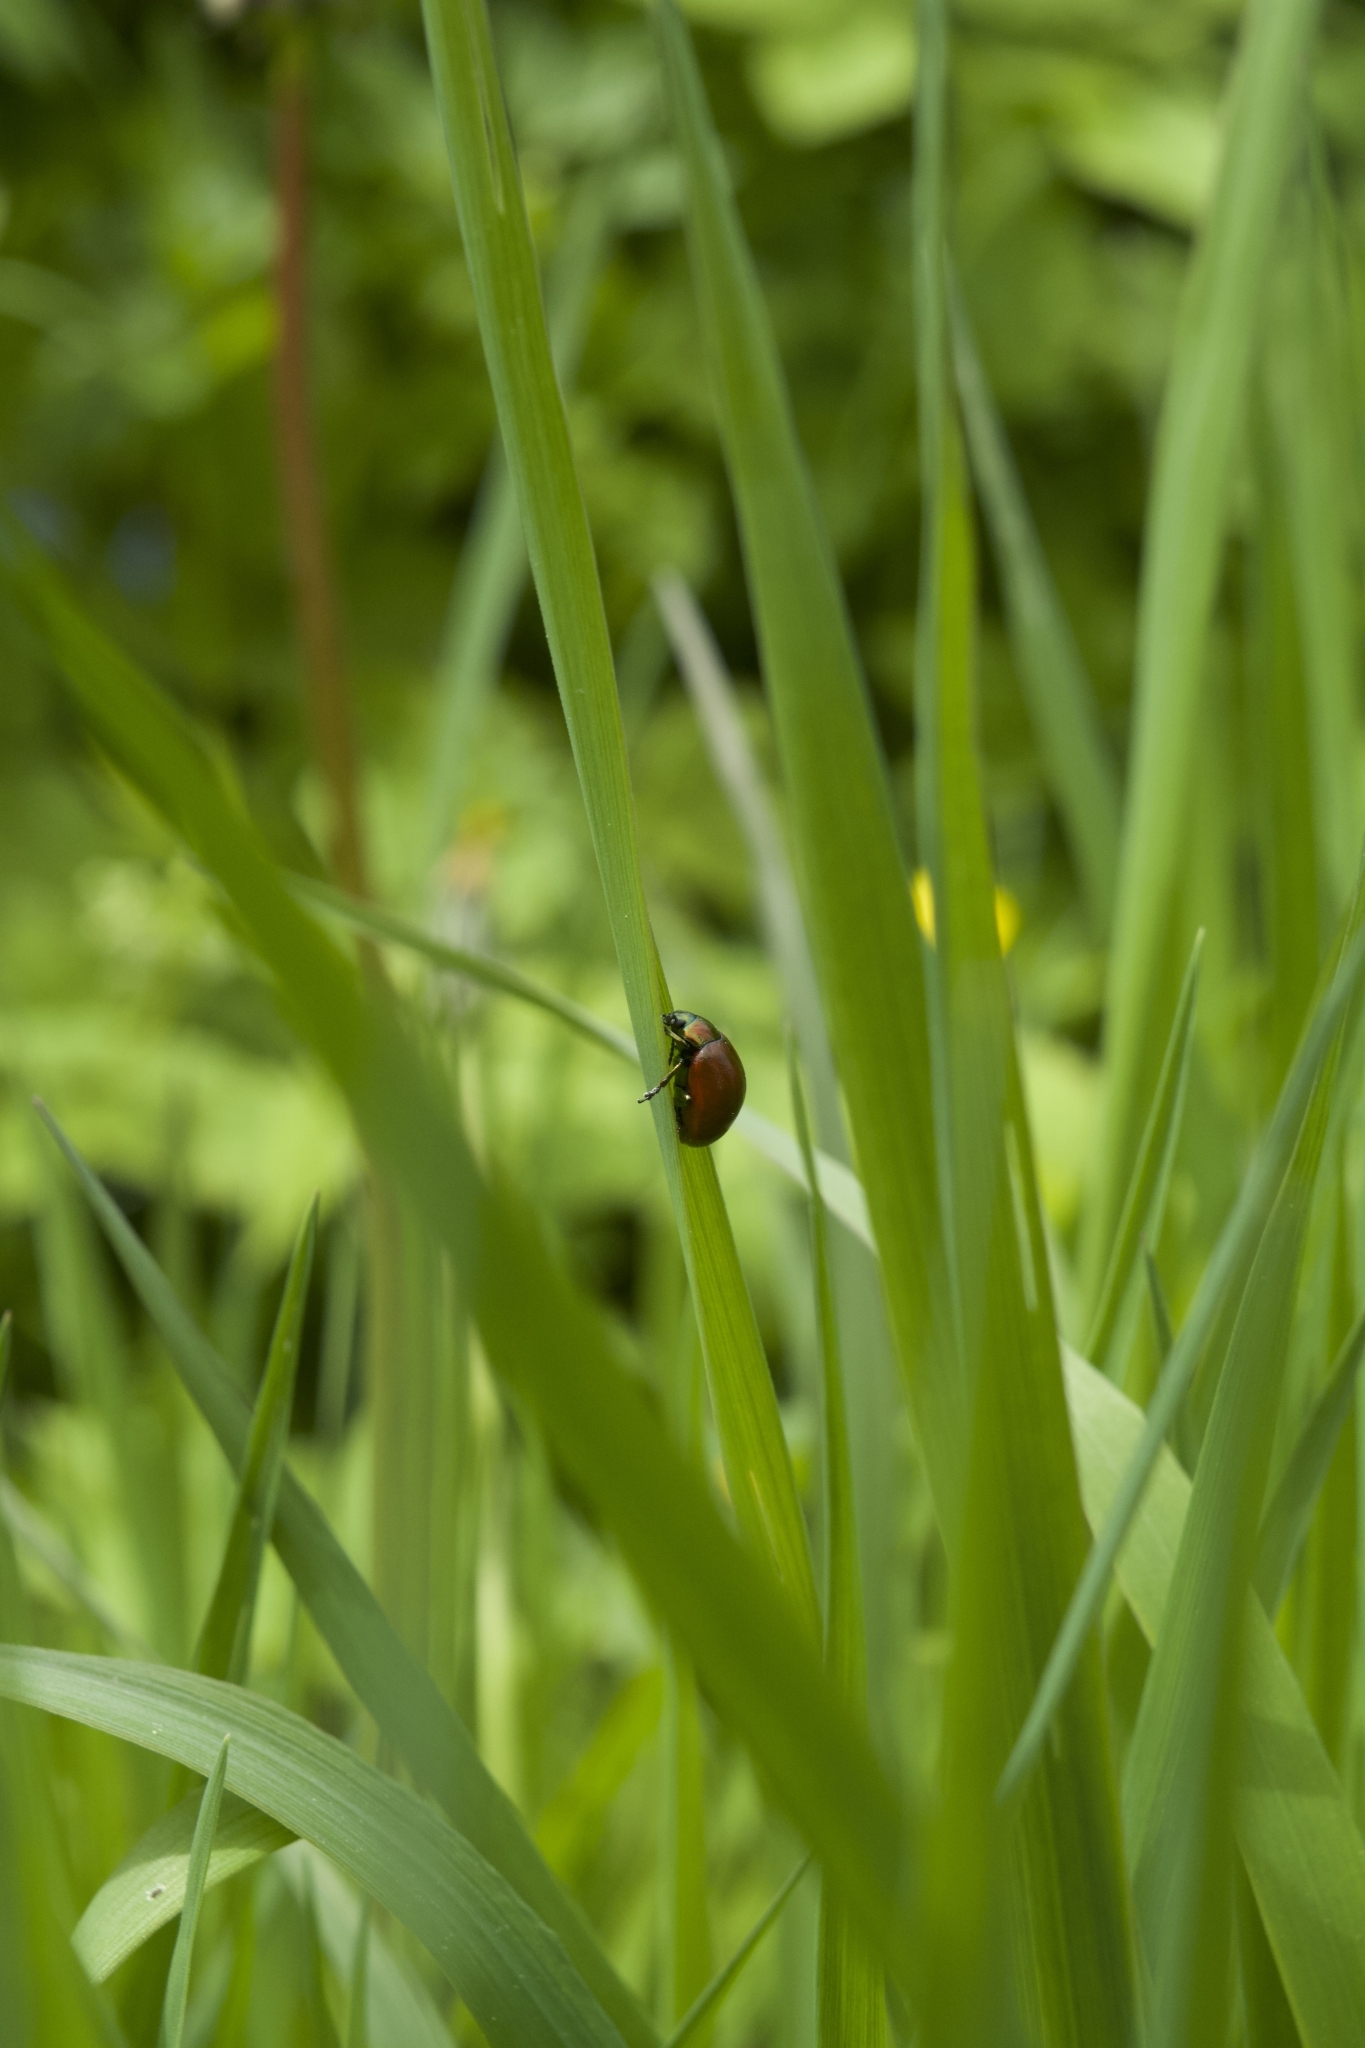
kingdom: Animalia
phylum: Arthropoda
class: Insecta
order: Coleoptera
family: Chrysomelidae
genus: Chrysomela
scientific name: Chrysomela polita
